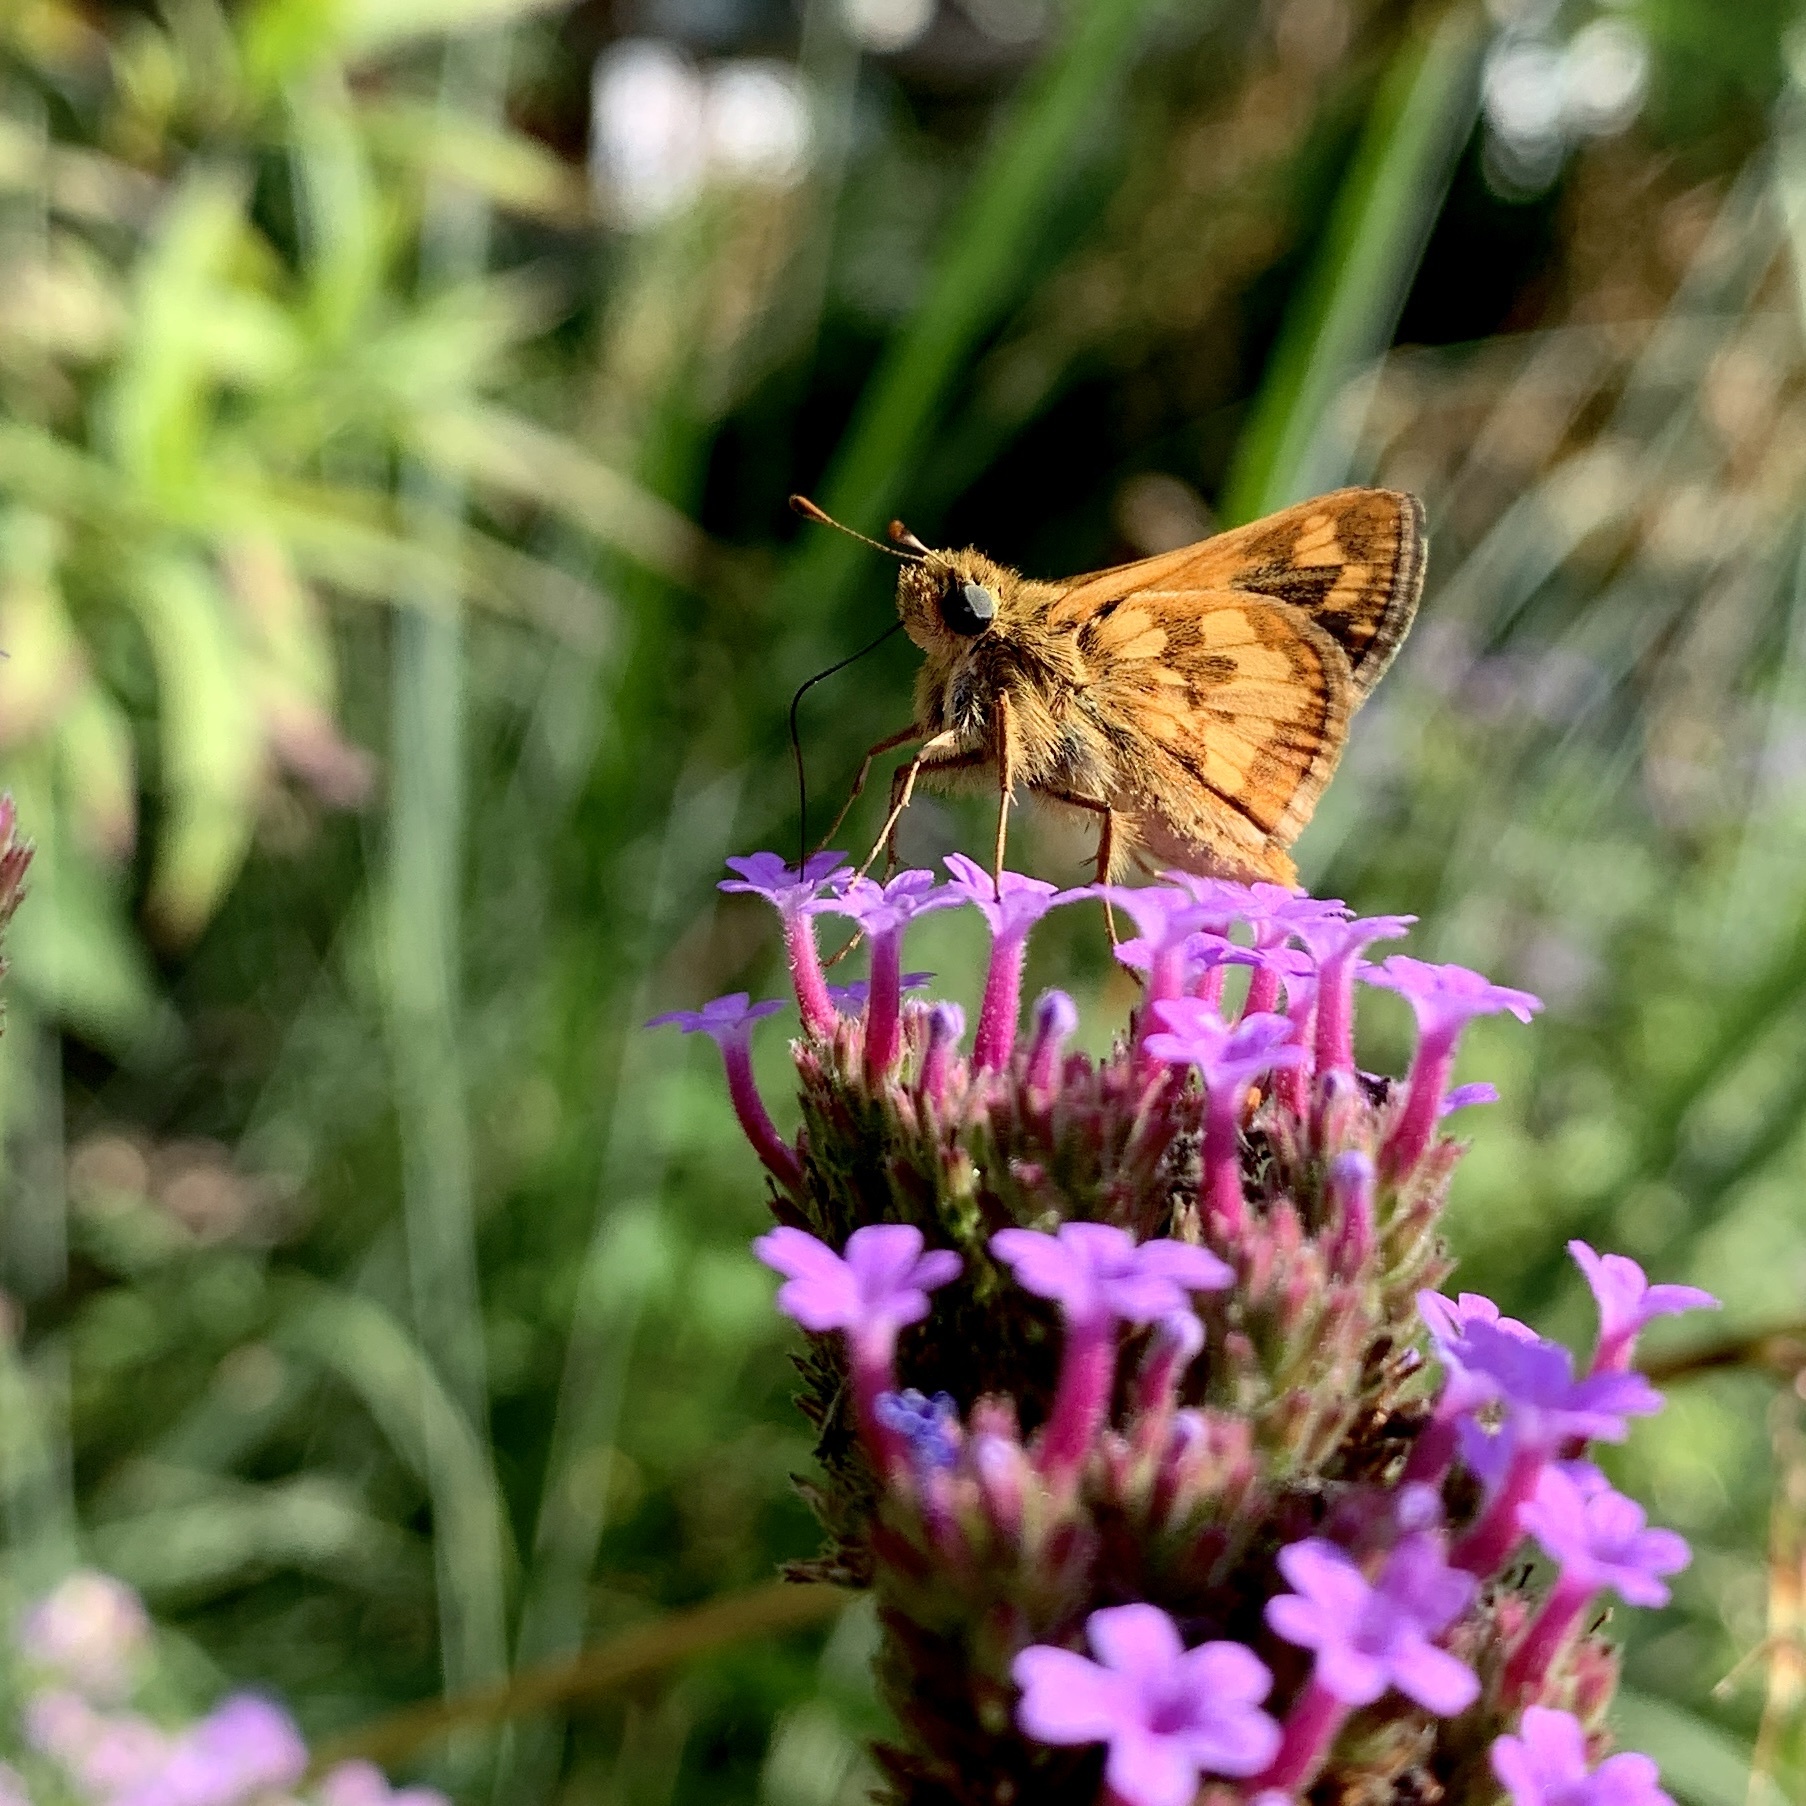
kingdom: Animalia
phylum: Arthropoda
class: Insecta
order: Lepidoptera
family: Hesperiidae
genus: Polites
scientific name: Polites coras
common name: Peck's skipper
